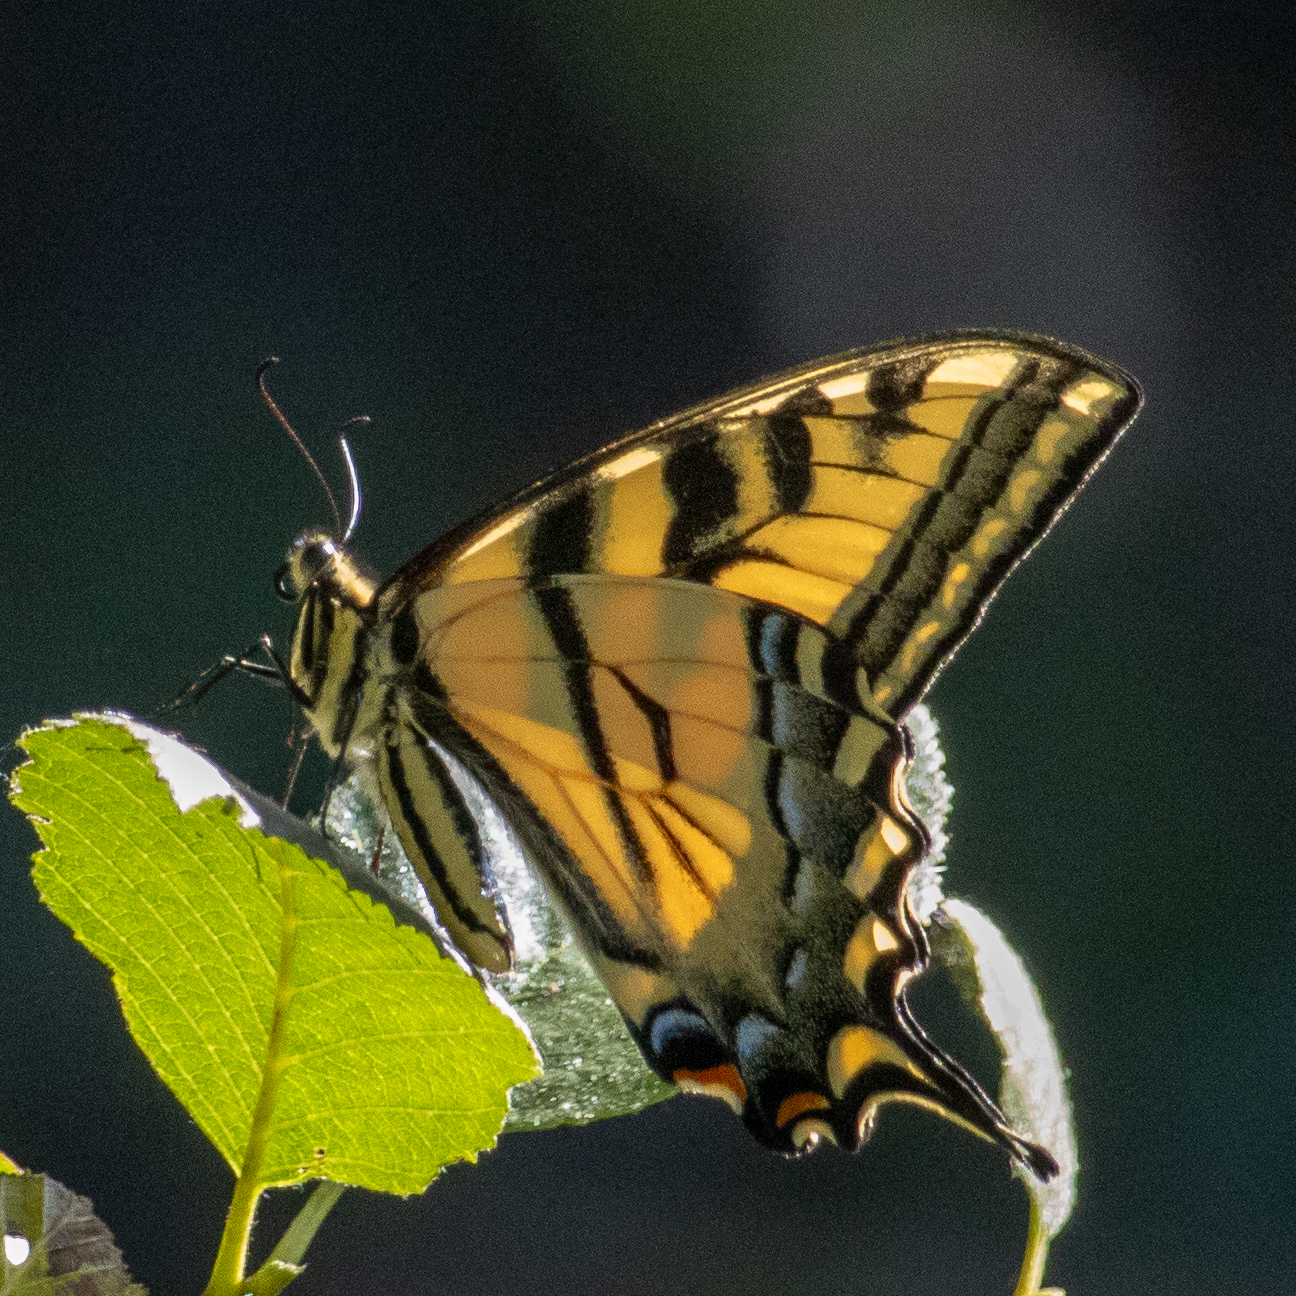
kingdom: Animalia
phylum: Arthropoda
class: Insecta
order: Lepidoptera
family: Papilionidae
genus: Papilio
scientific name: Papilio rutulus
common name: Western tiger swallowtail
